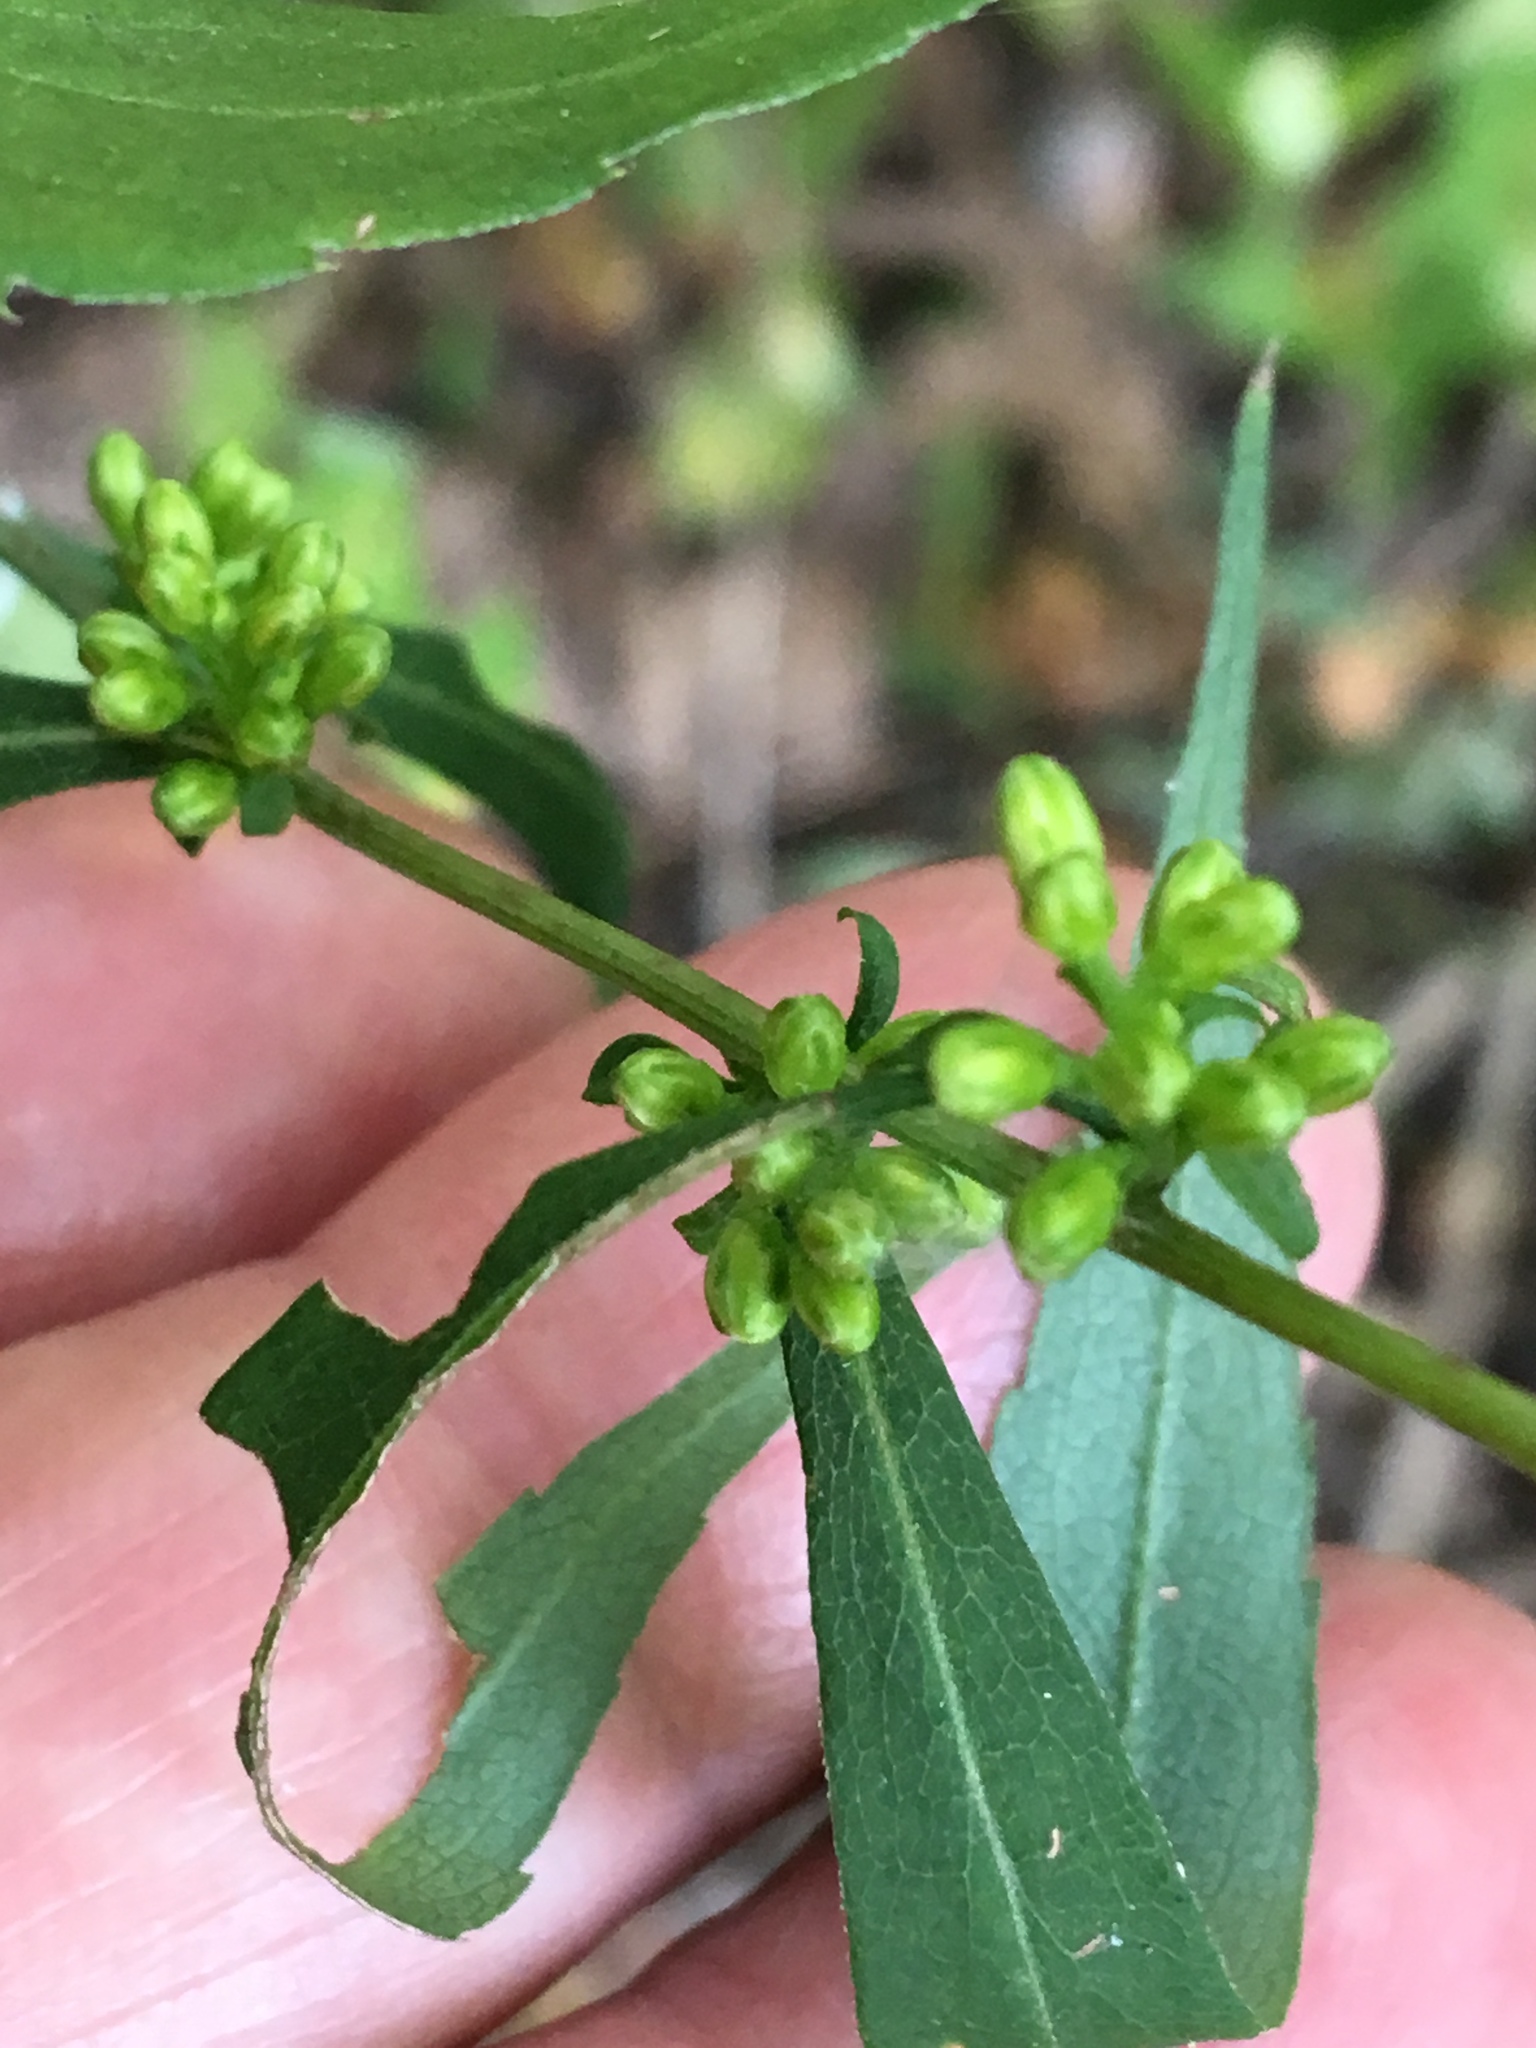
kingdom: Plantae
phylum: Tracheophyta
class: Magnoliopsida
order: Asterales
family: Asteraceae
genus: Solidago
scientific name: Solidago caesia
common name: Woodland goldenrod
